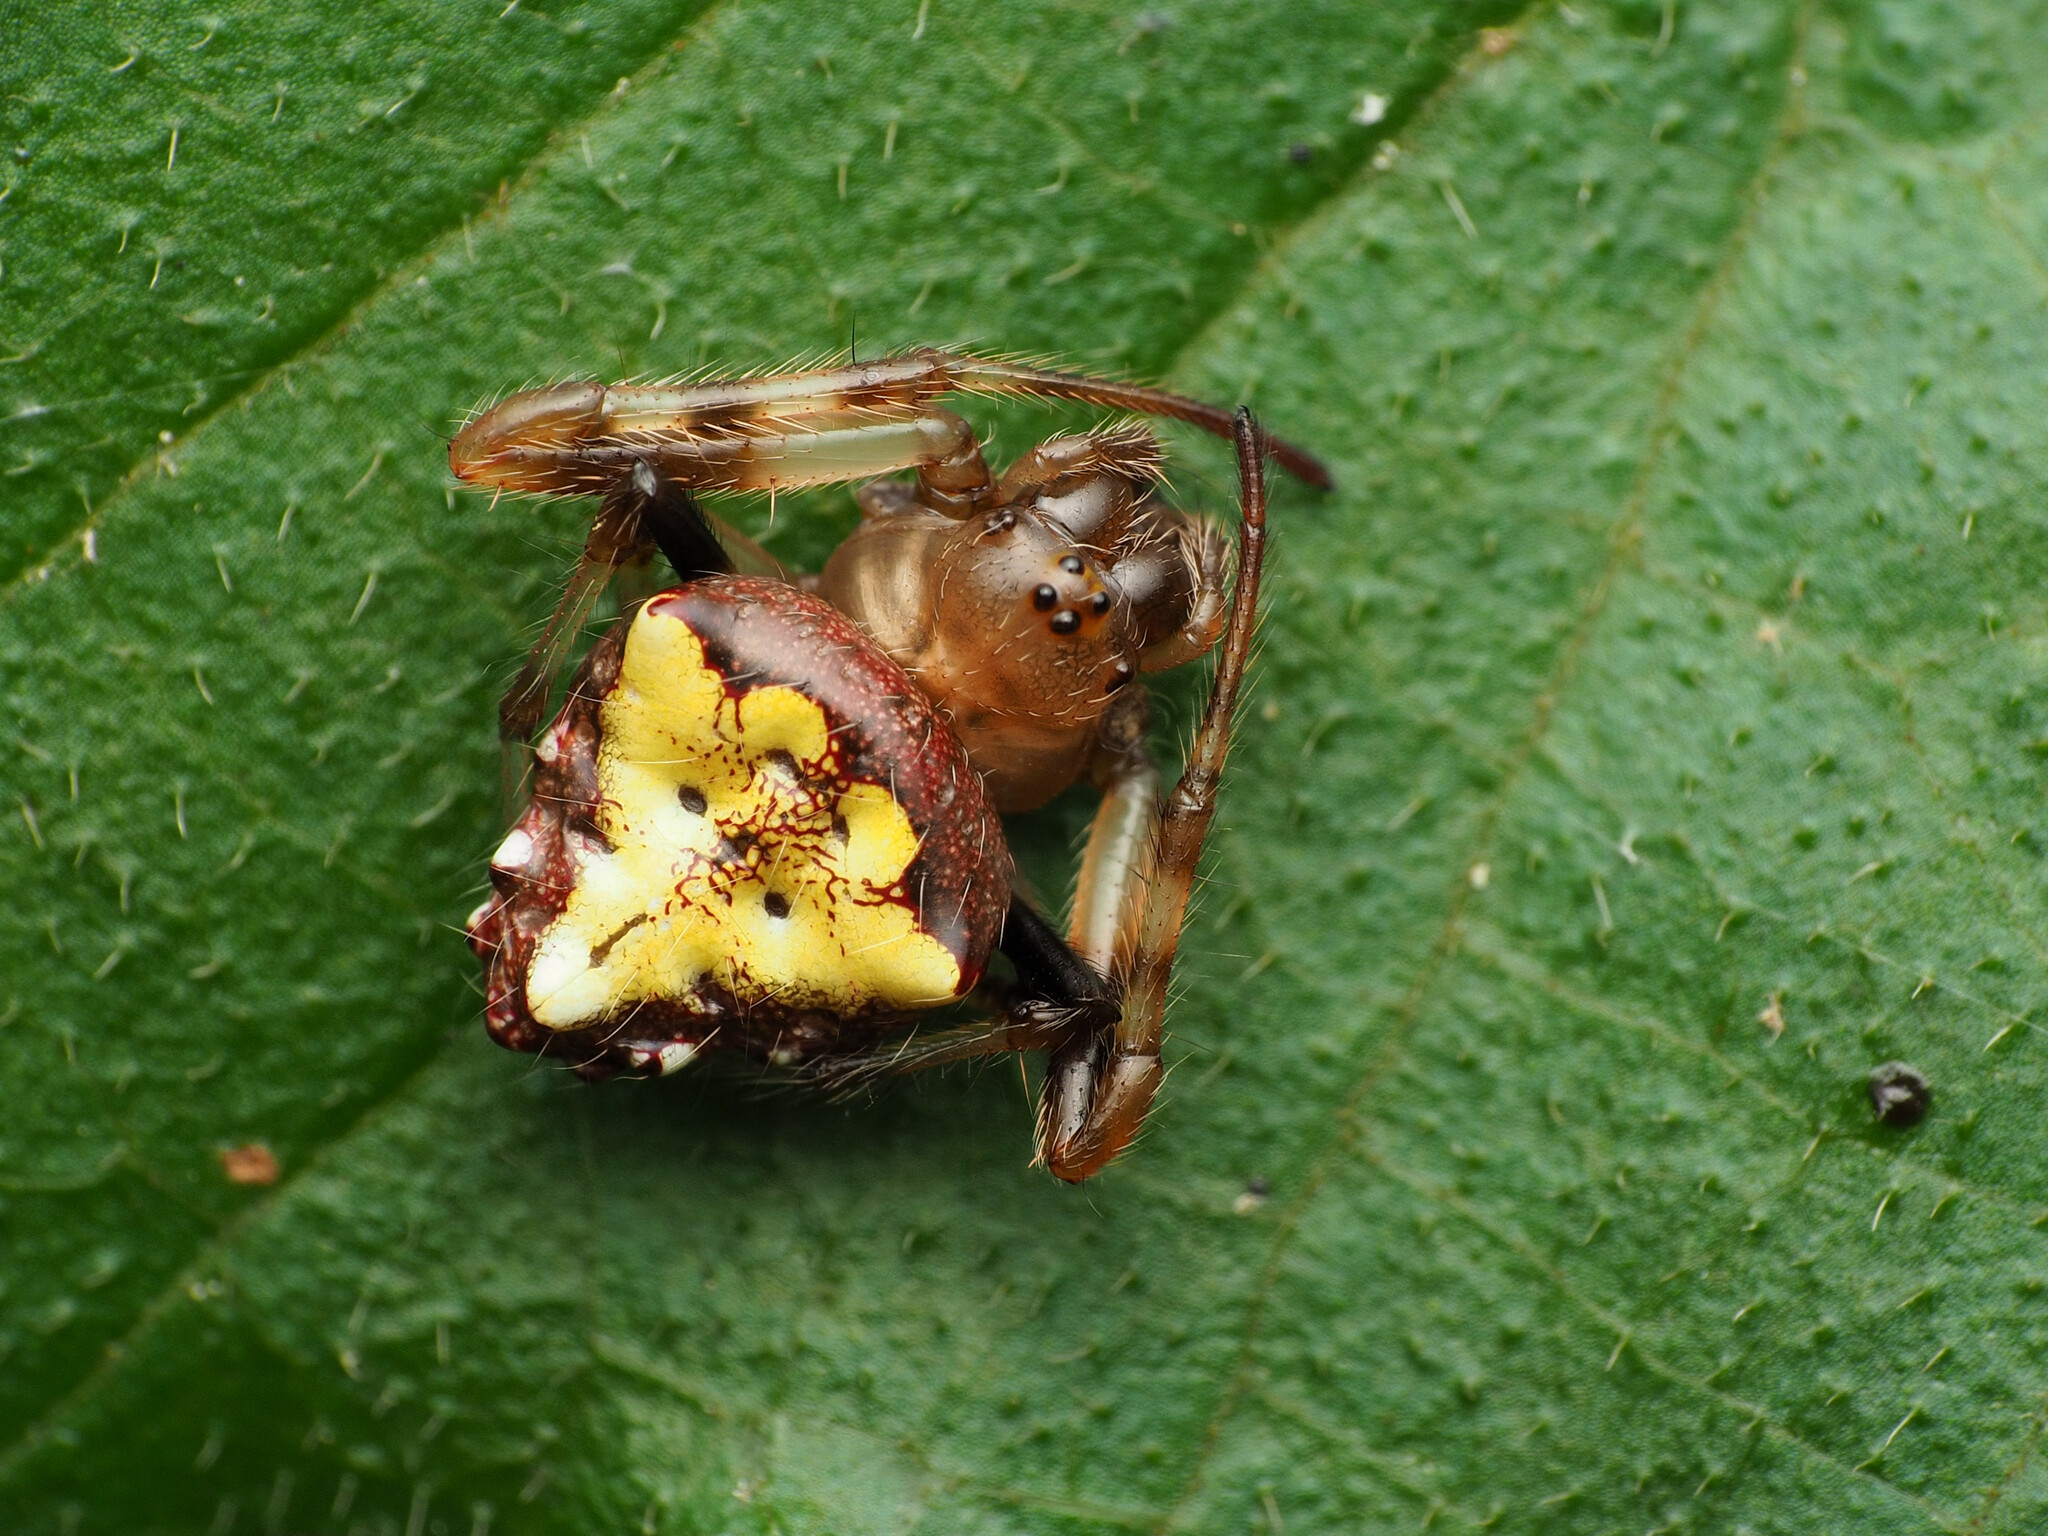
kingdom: Animalia
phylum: Arthropoda
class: Arachnida
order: Araneae
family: Araneidae
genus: Verrucosa
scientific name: Verrucosa arenata
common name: Orb weavers
